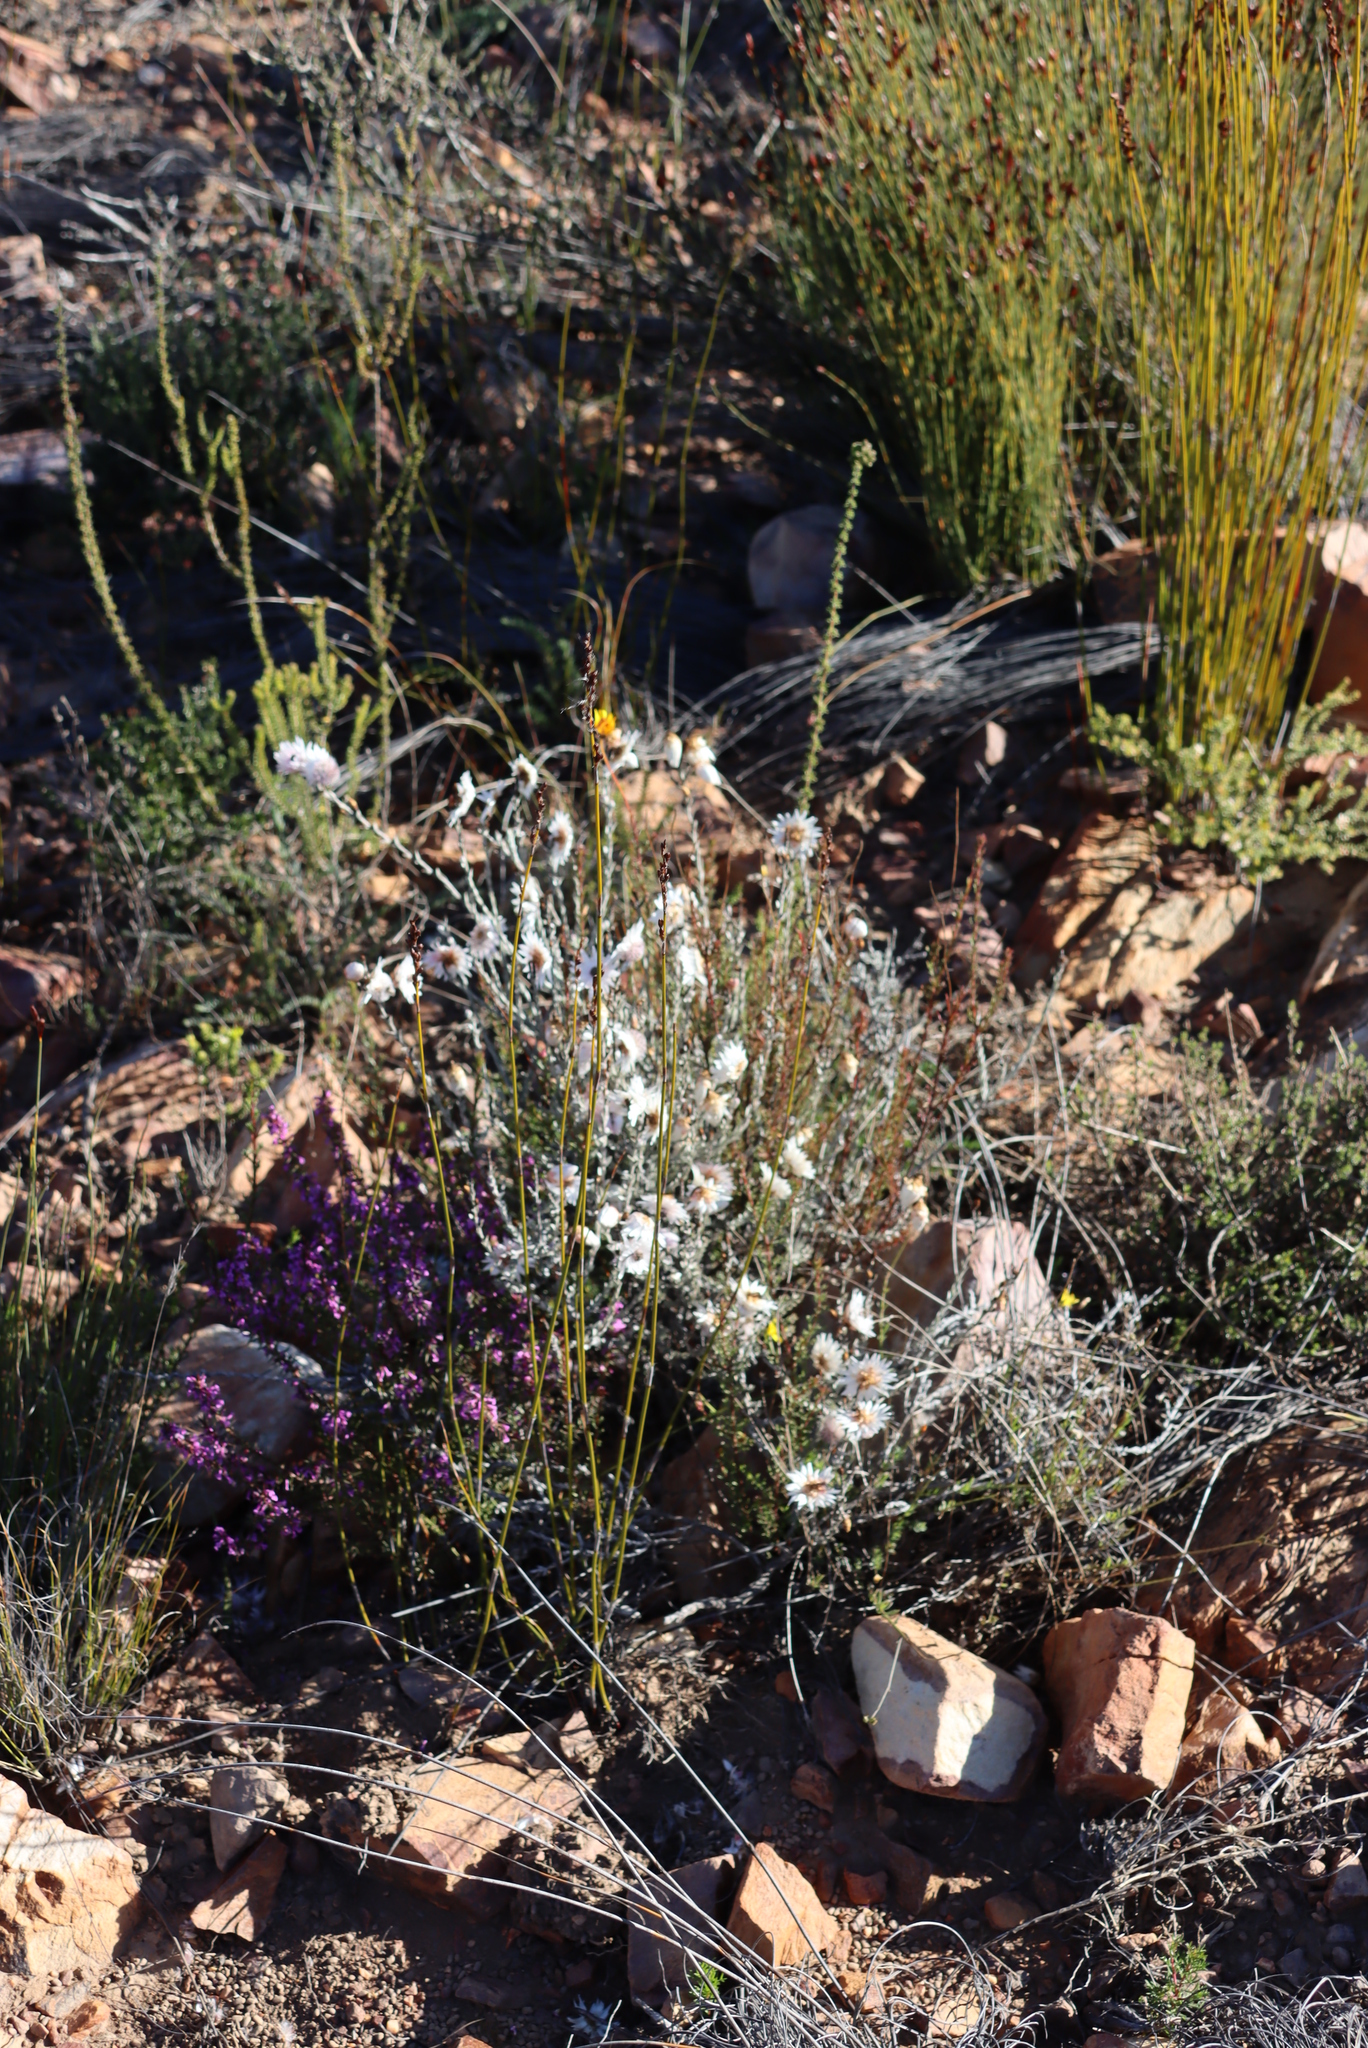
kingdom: Plantae
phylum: Tracheophyta
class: Magnoliopsida
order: Asterales
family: Asteraceae
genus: Syncarpha
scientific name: Syncarpha canescens
